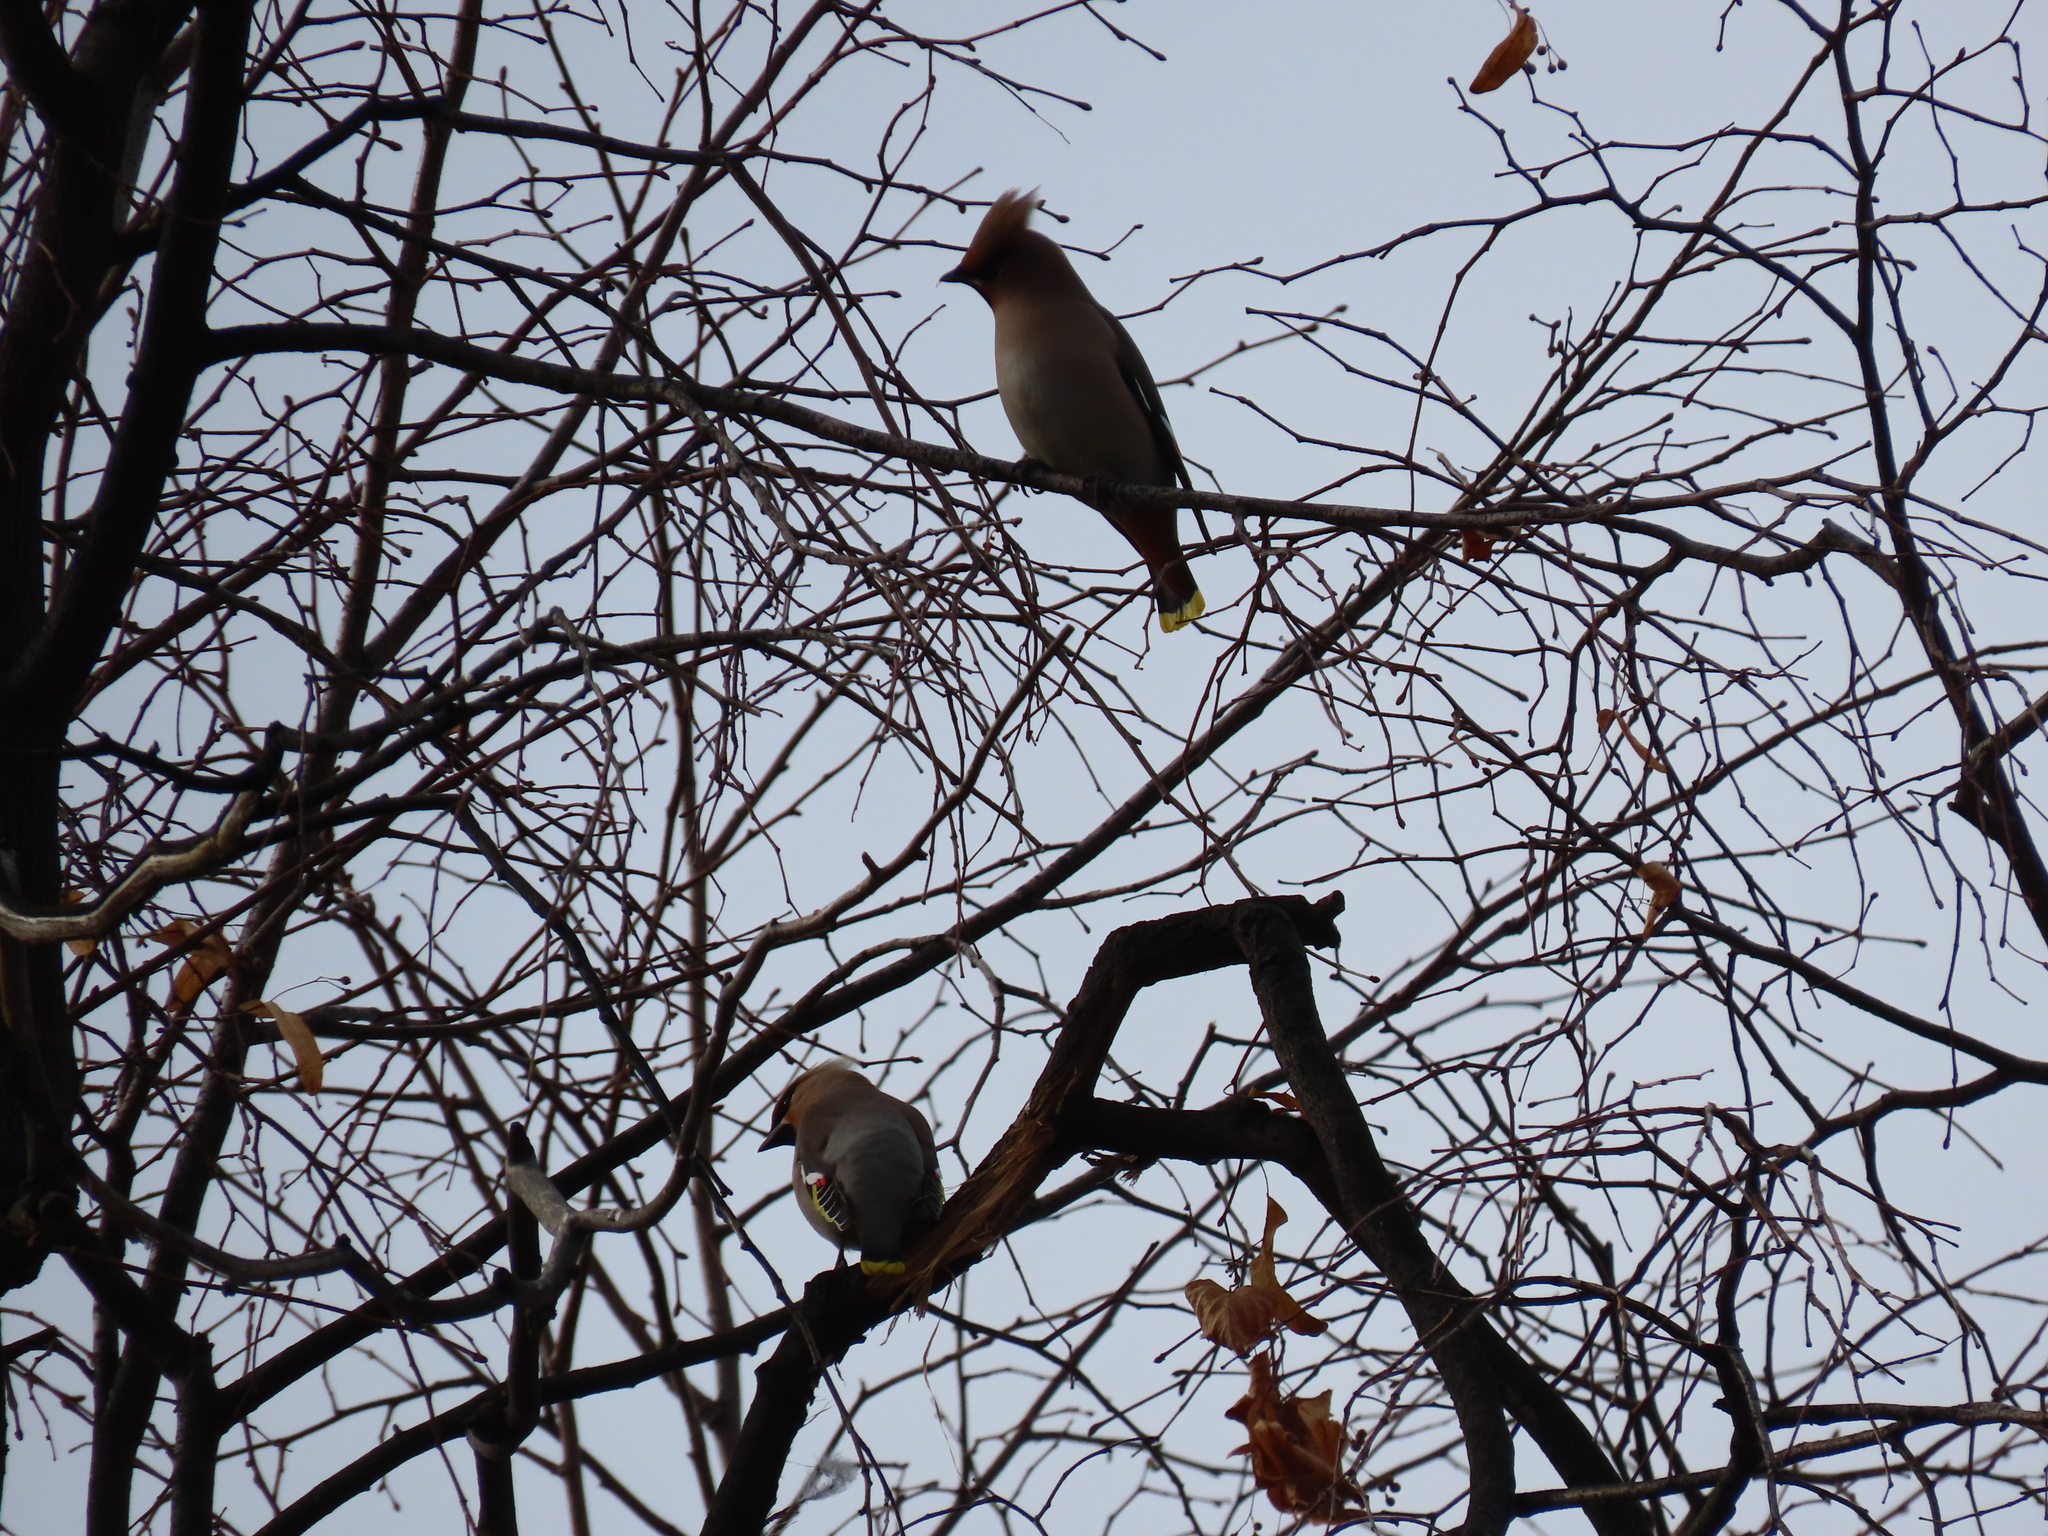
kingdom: Animalia
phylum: Chordata
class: Aves
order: Passeriformes
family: Bombycillidae
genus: Bombycilla
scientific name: Bombycilla garrulus
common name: Bohemian waxwing
